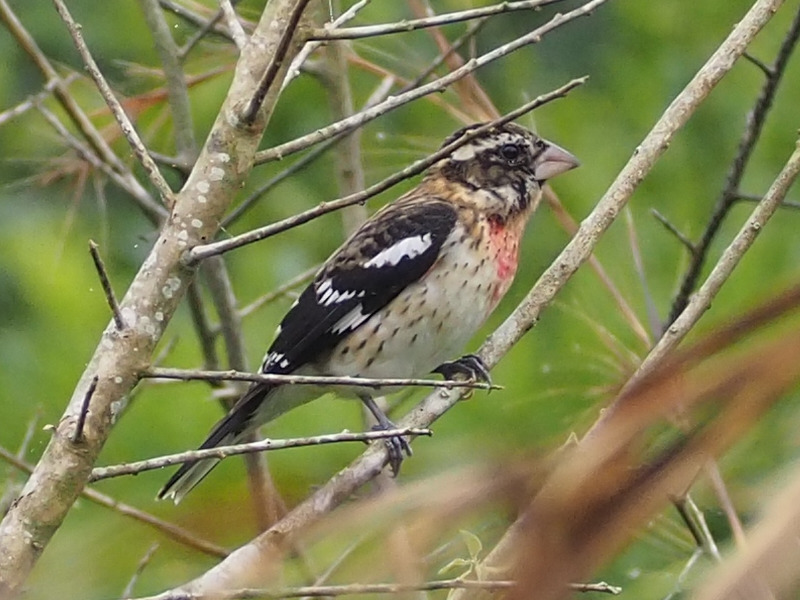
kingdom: Animalia
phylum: Chordata
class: Aves
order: Passeriformes
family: Cardinalidae
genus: Pheucticus
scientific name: Pheucticus ludovicianus
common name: Rose-breasted grosbeak
